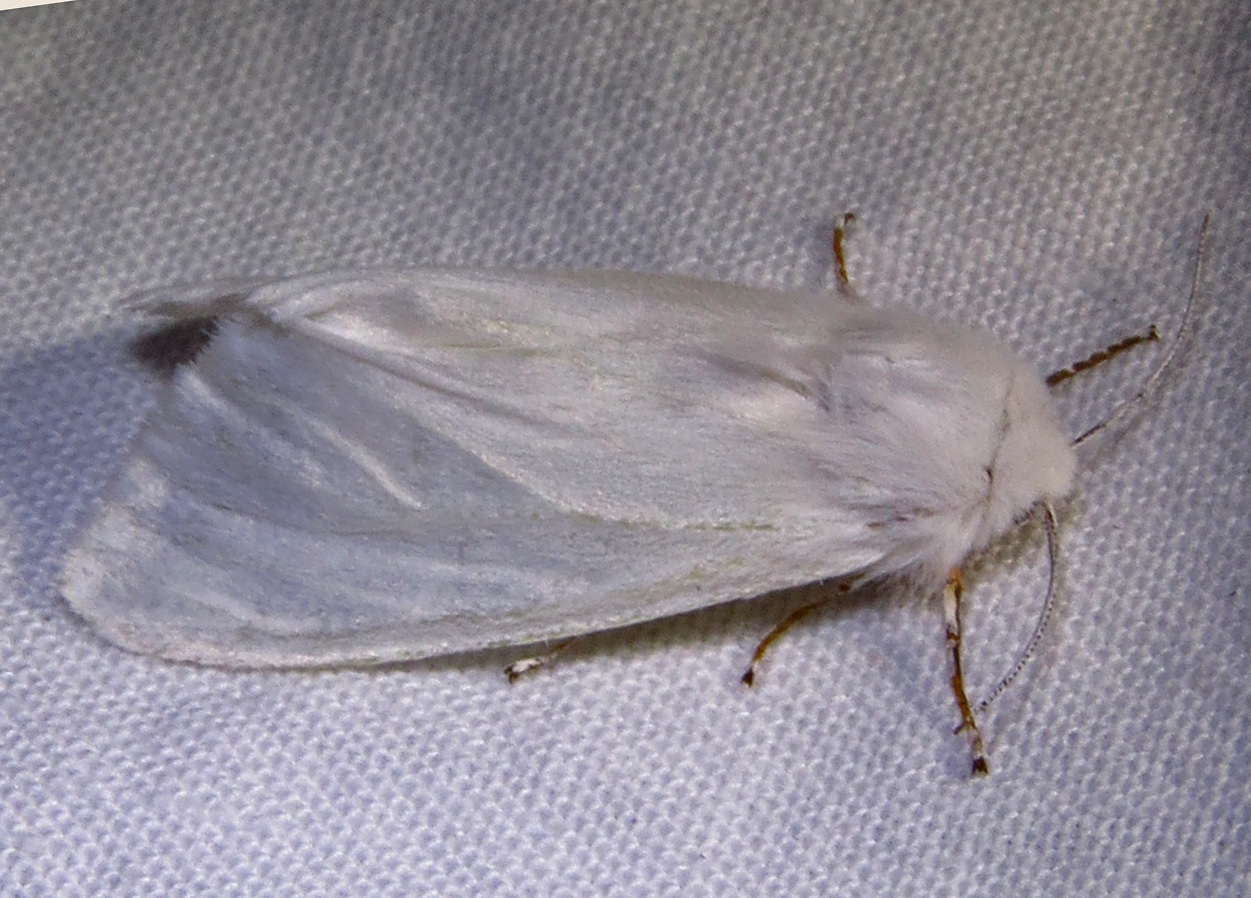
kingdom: Animalia
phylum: Arthropoda
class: Insecta
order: Lepidoptera
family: Erebidae
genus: Hyphantria
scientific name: Hyphantria cunea
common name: American white moth
